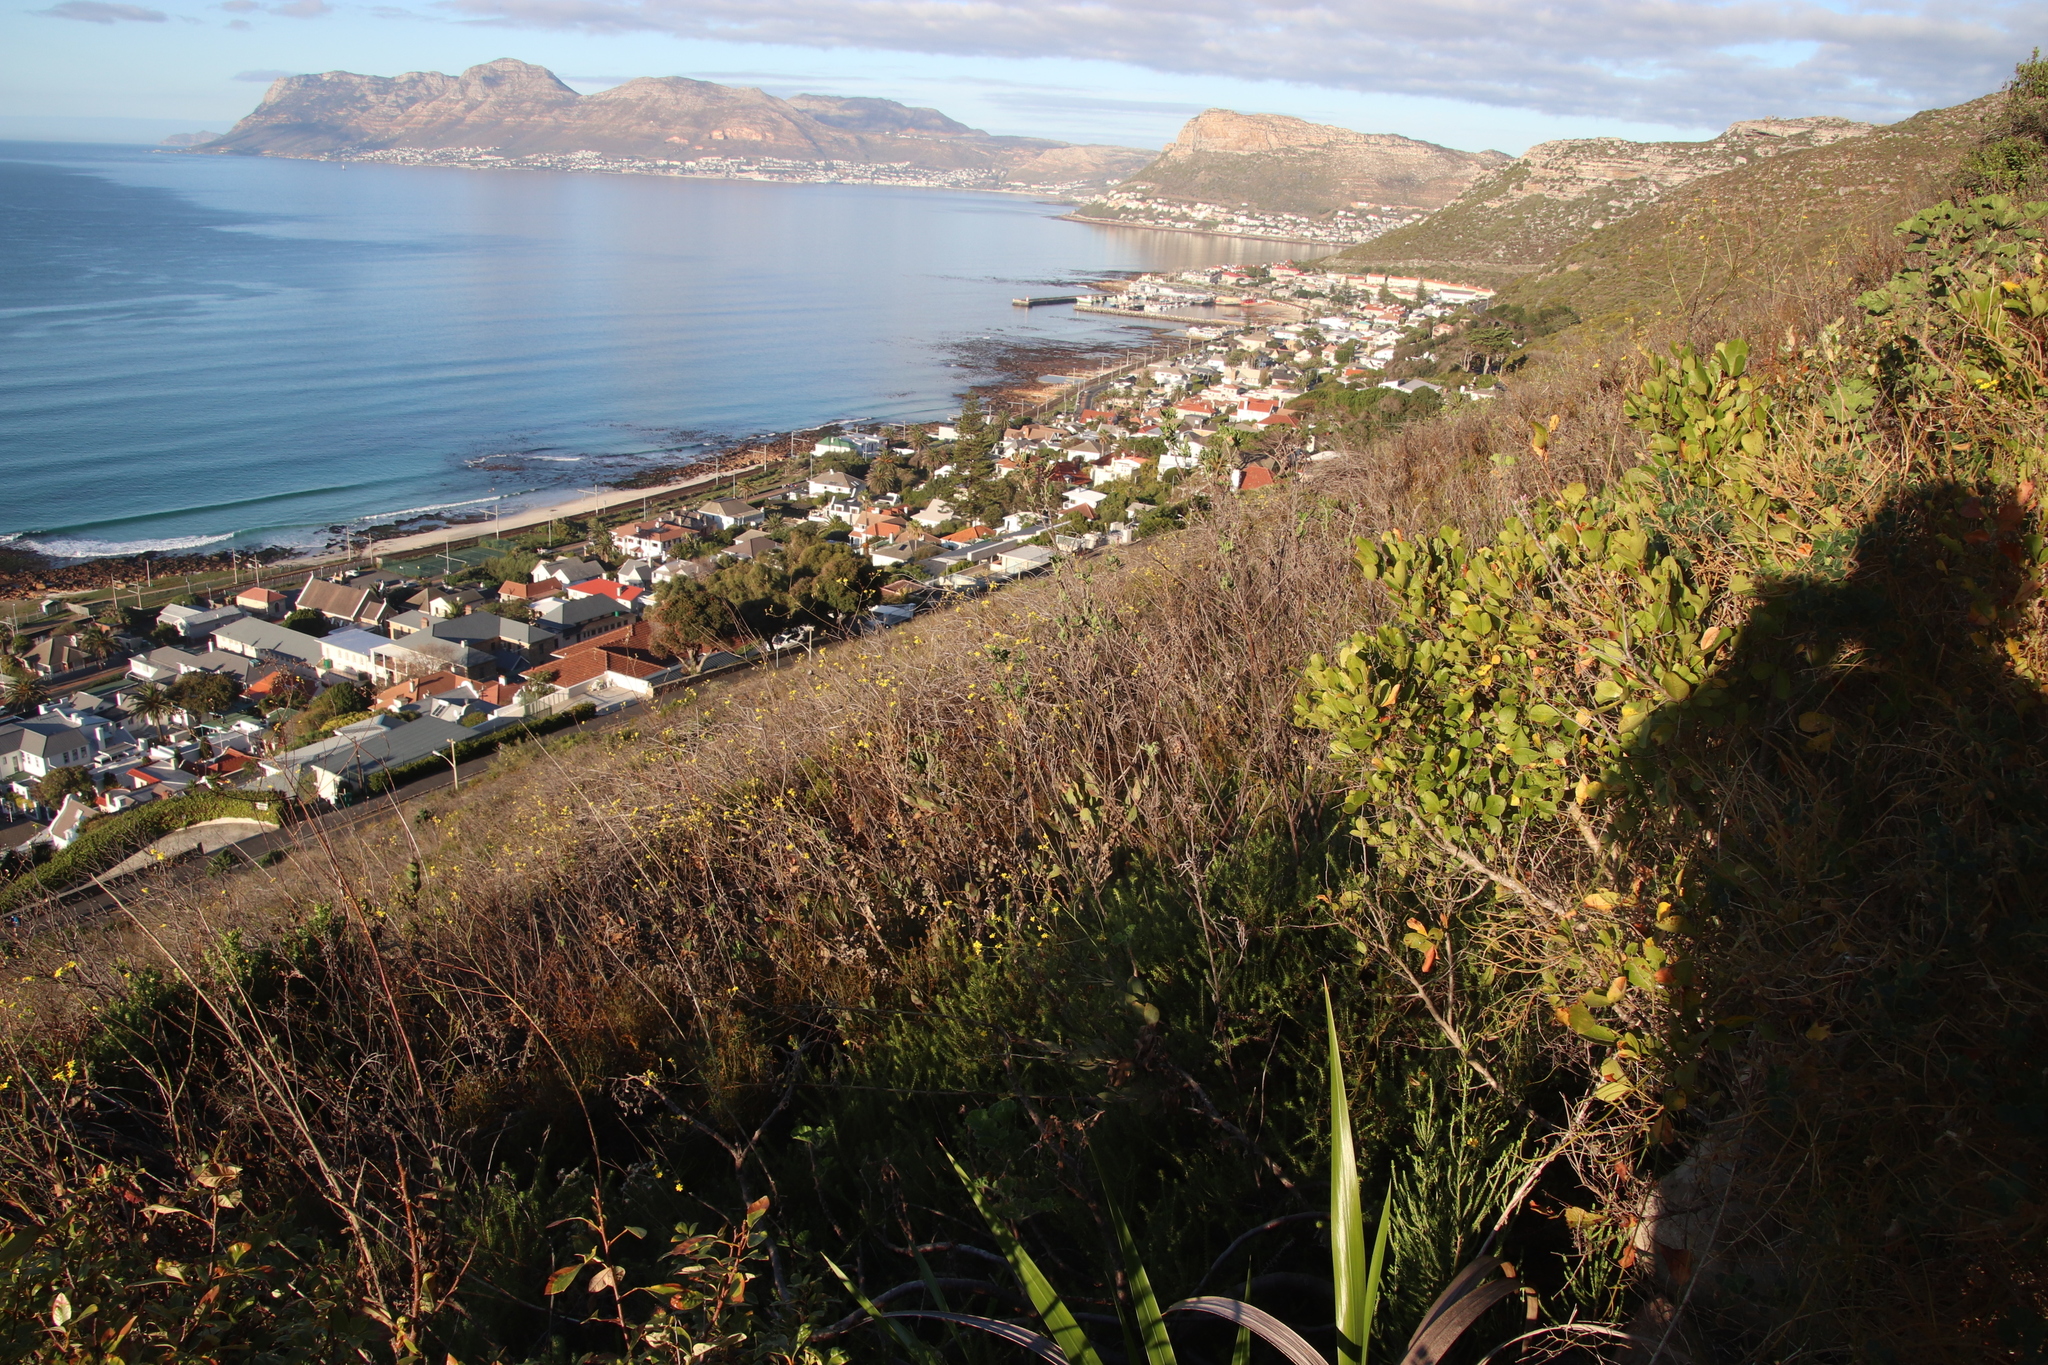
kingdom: Plantae
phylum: Tracheophyta
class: Magnoliopsida
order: Asterales
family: Asteraceae
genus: Othonna
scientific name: Othonna quinquedentata
